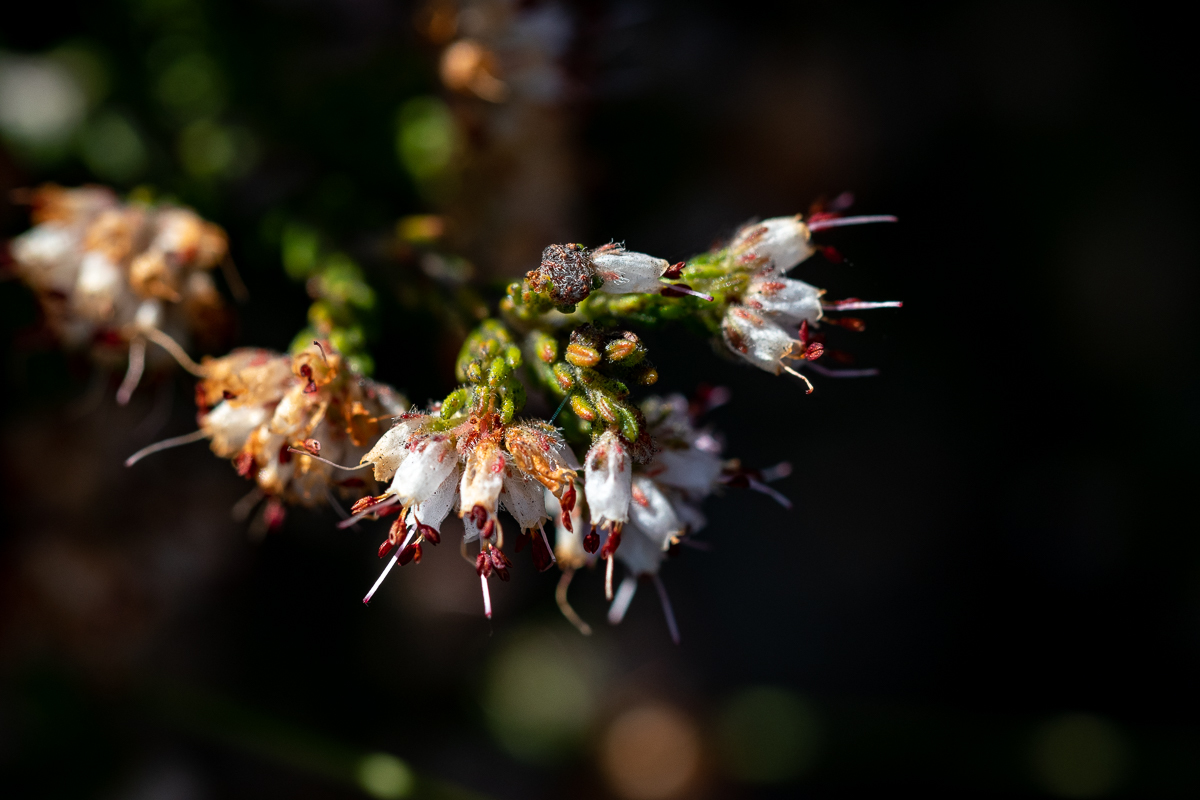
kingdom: Plantae
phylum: Tracheophyta
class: Magnoliopsida
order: Ericales
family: Ericaceae
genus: Erica
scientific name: Erica ericoides
